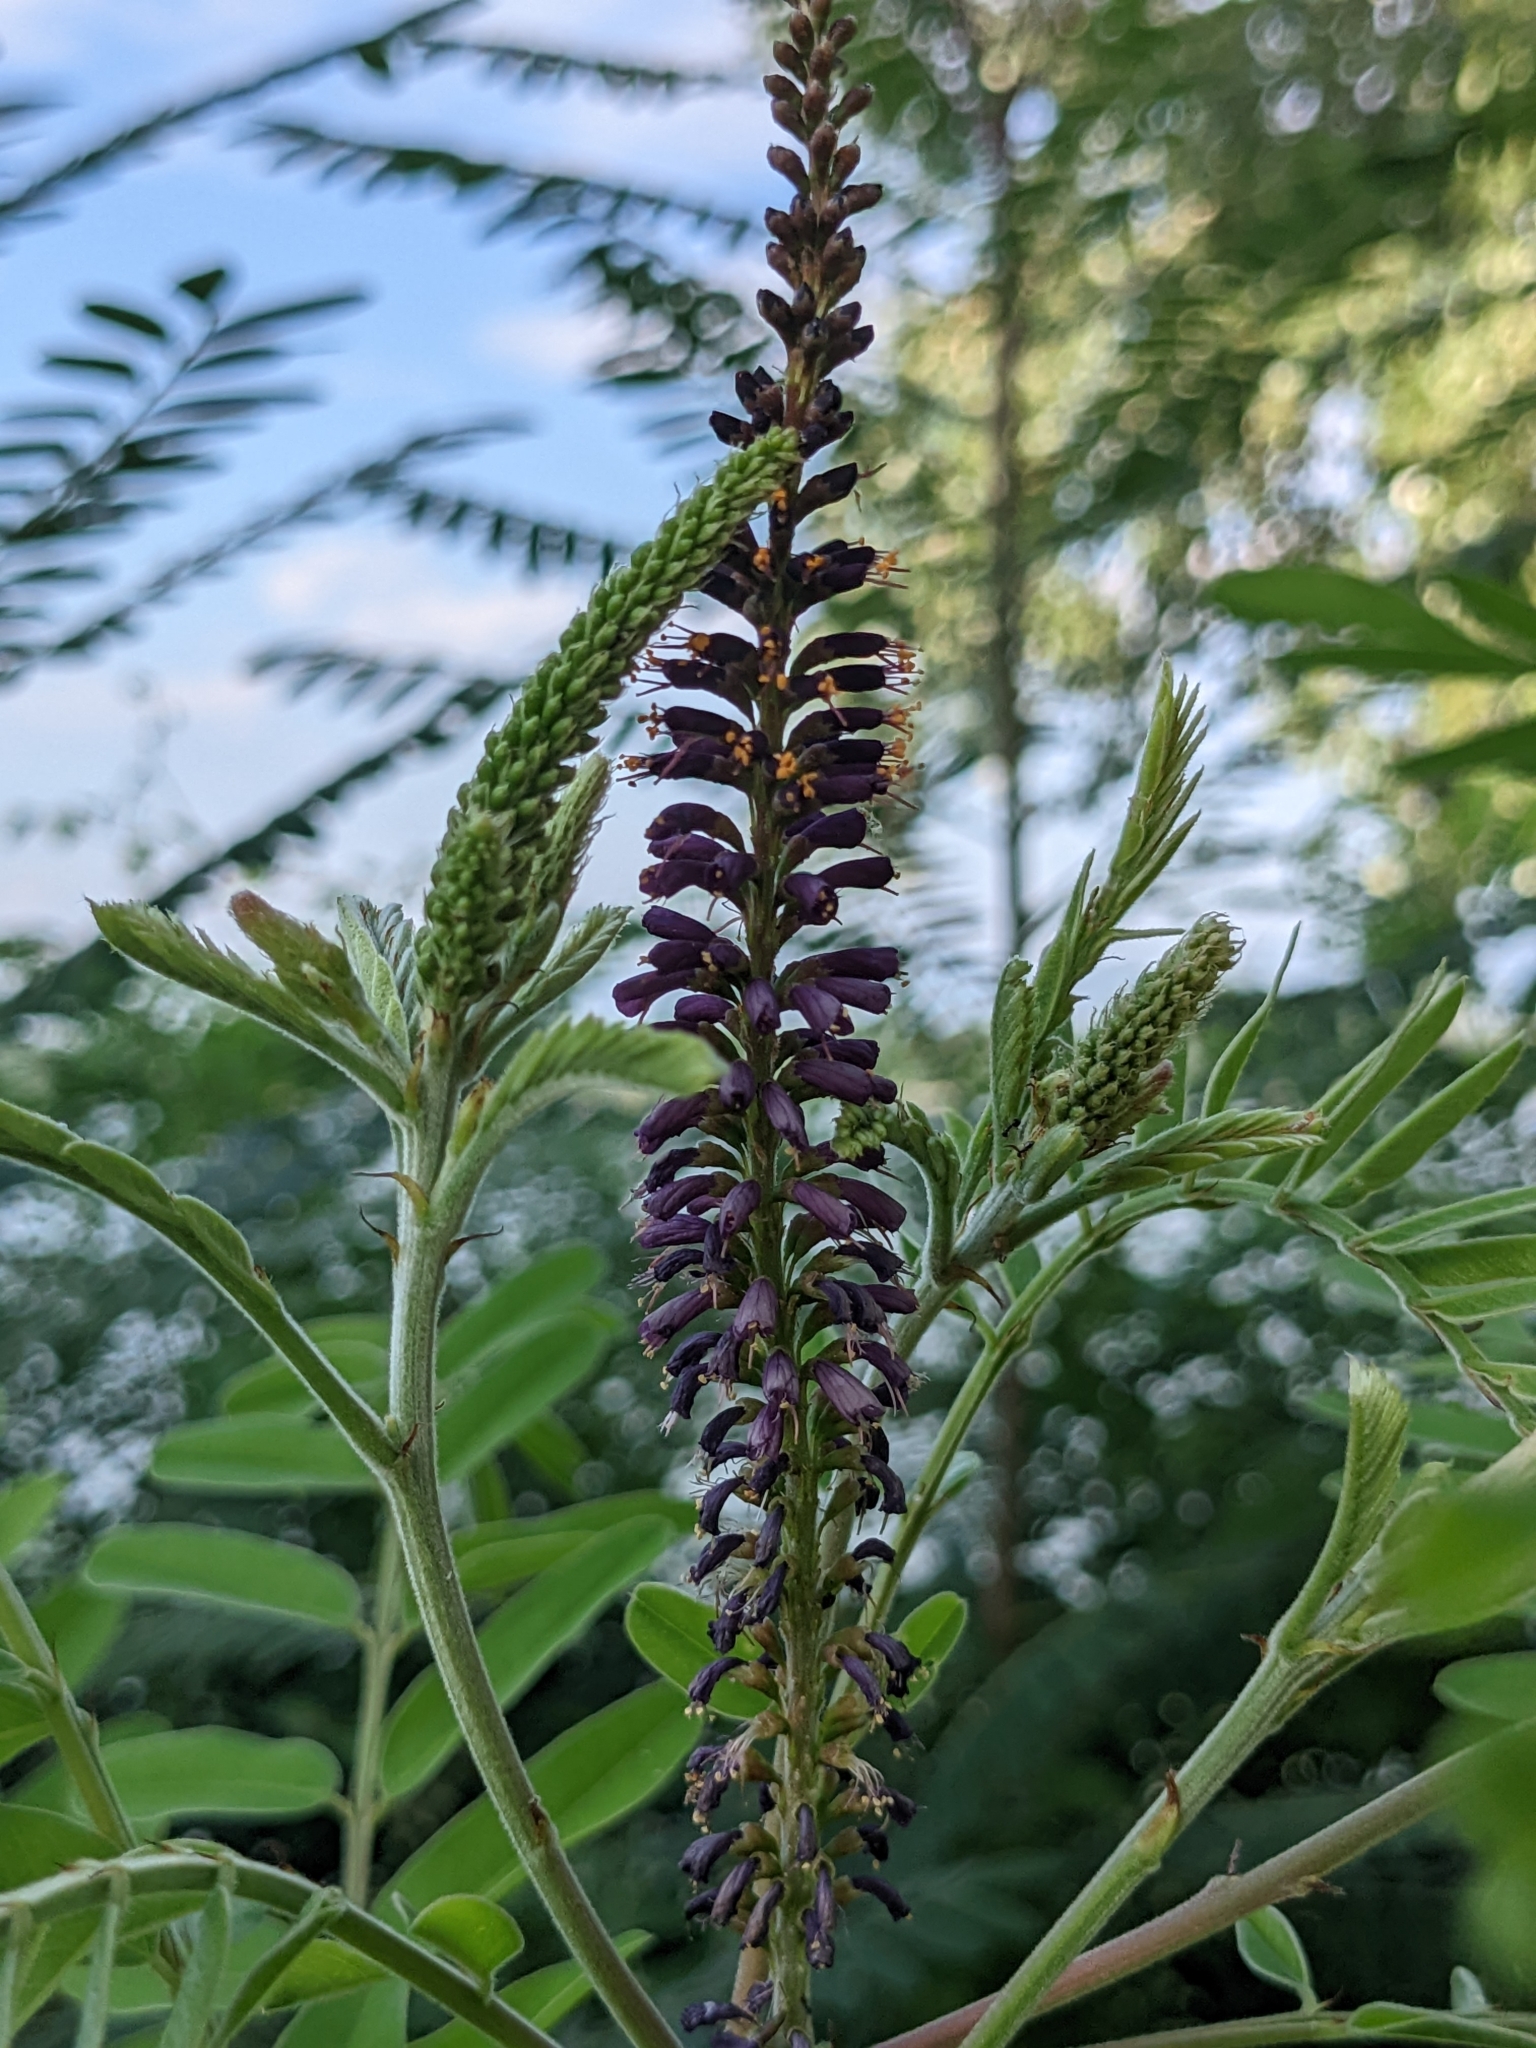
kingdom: Plantae
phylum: Tracheophyta
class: Magnoliopsida
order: Fabales
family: Fabaceae
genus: Amorpha
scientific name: Amorpha fruticosa
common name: False indigo
